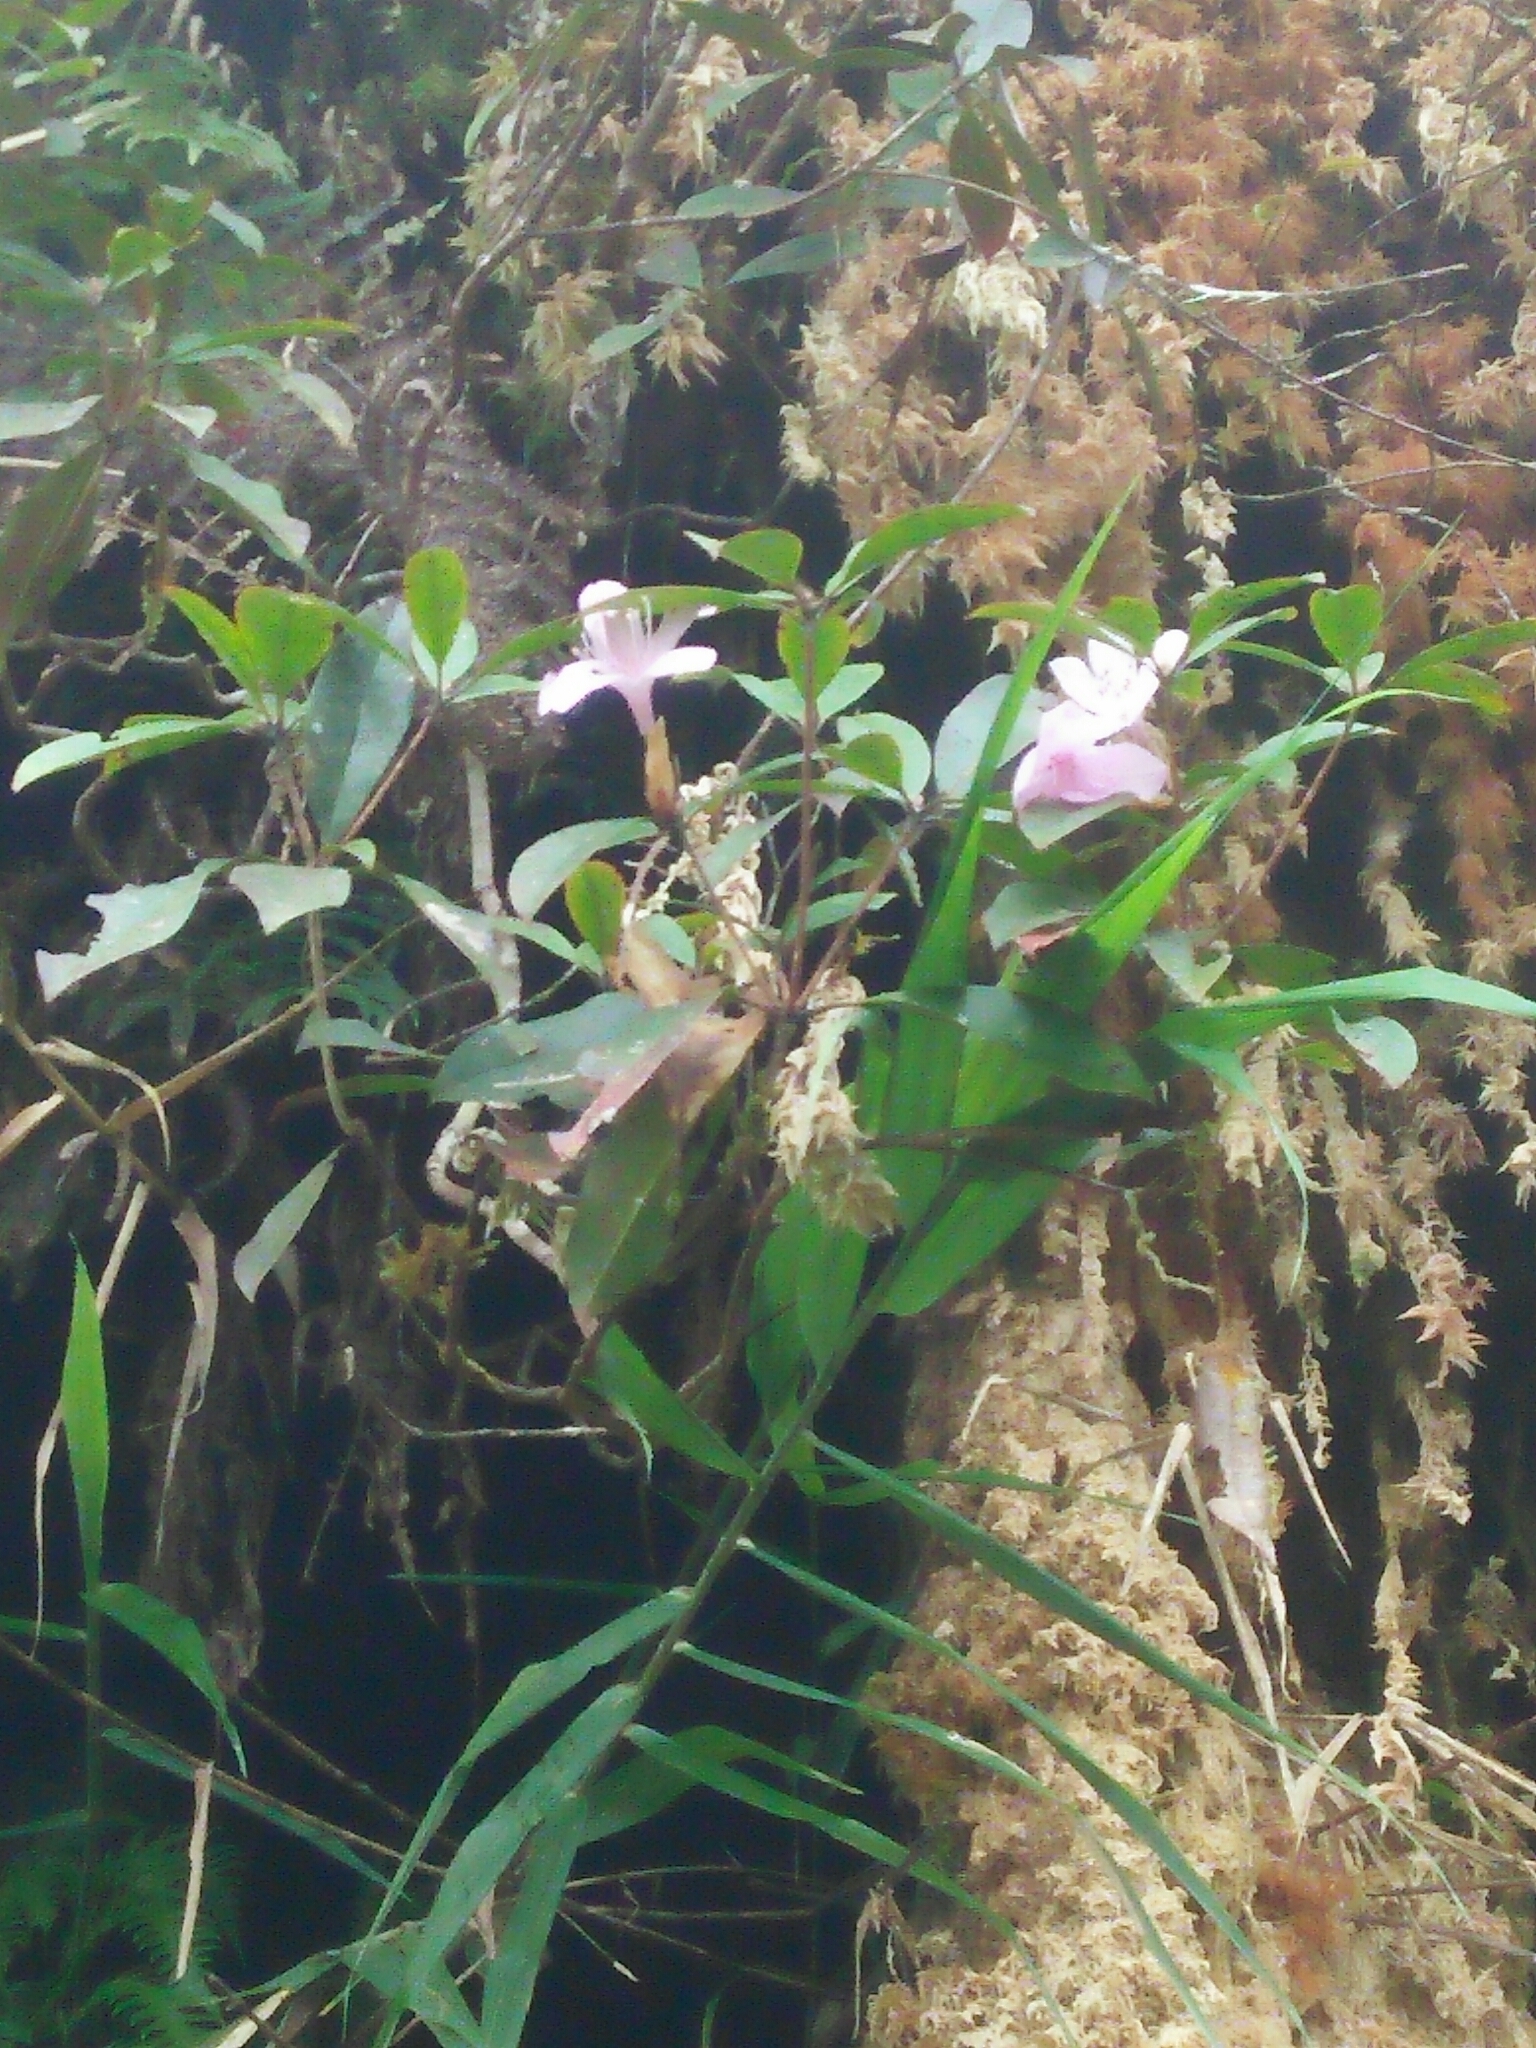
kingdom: Plantae
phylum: Tracheophyta
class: Magnoliopsida
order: Ericales
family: Ericaceae
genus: Rhododendron
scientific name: Rhododendron latoucheae
